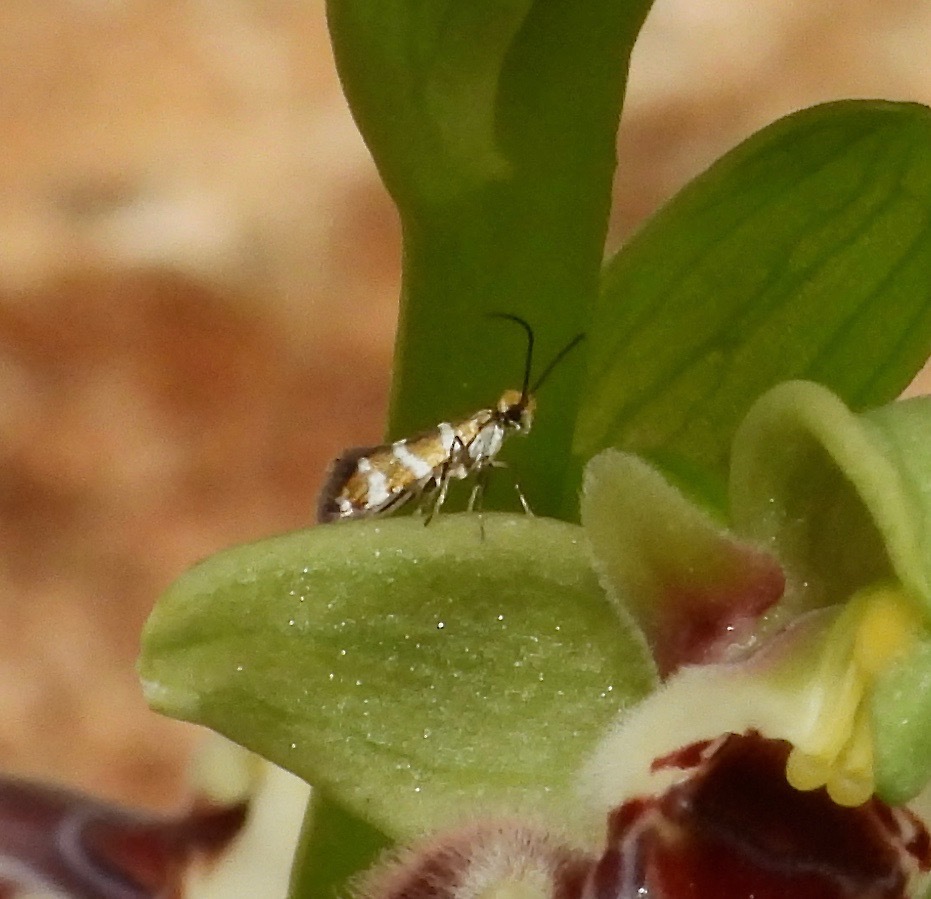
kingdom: Animalia
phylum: Arthropoda
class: Insecta
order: Lepidoptera
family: Micropterigidae
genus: Micropterix
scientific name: Micropterix cypriensis
